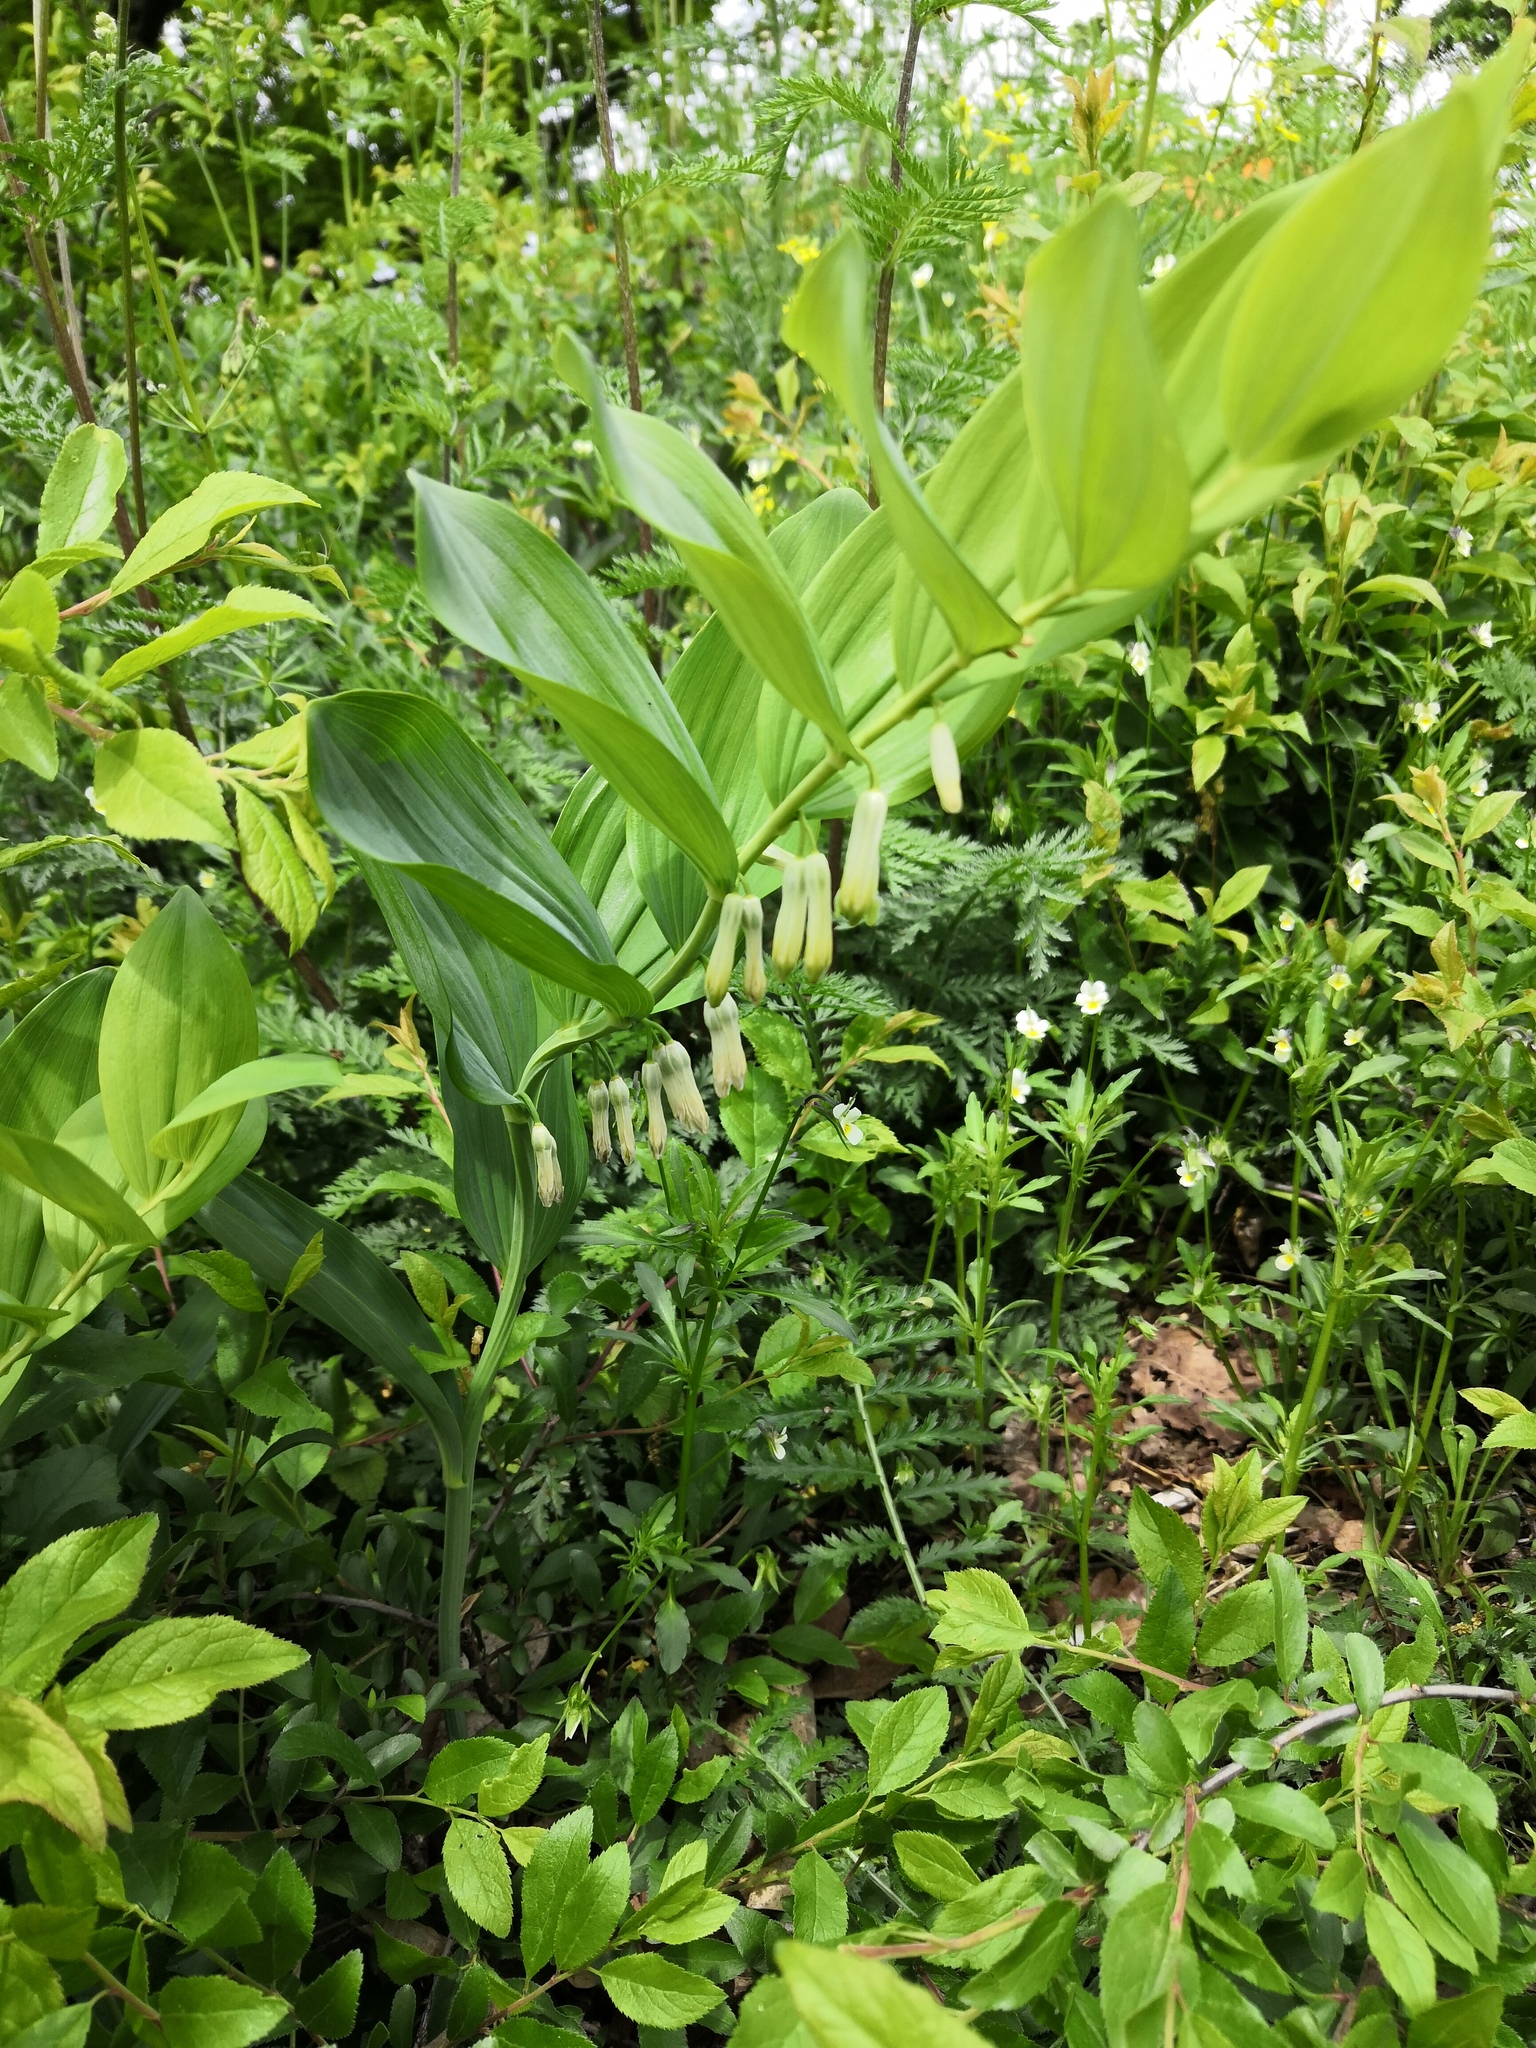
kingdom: Plantae
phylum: Tracheophyta
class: Liliopsida
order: Asparagales
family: Asparagaceae
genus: Polygonatum
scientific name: Polygonatum multiflorum
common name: Solomon's-seal
